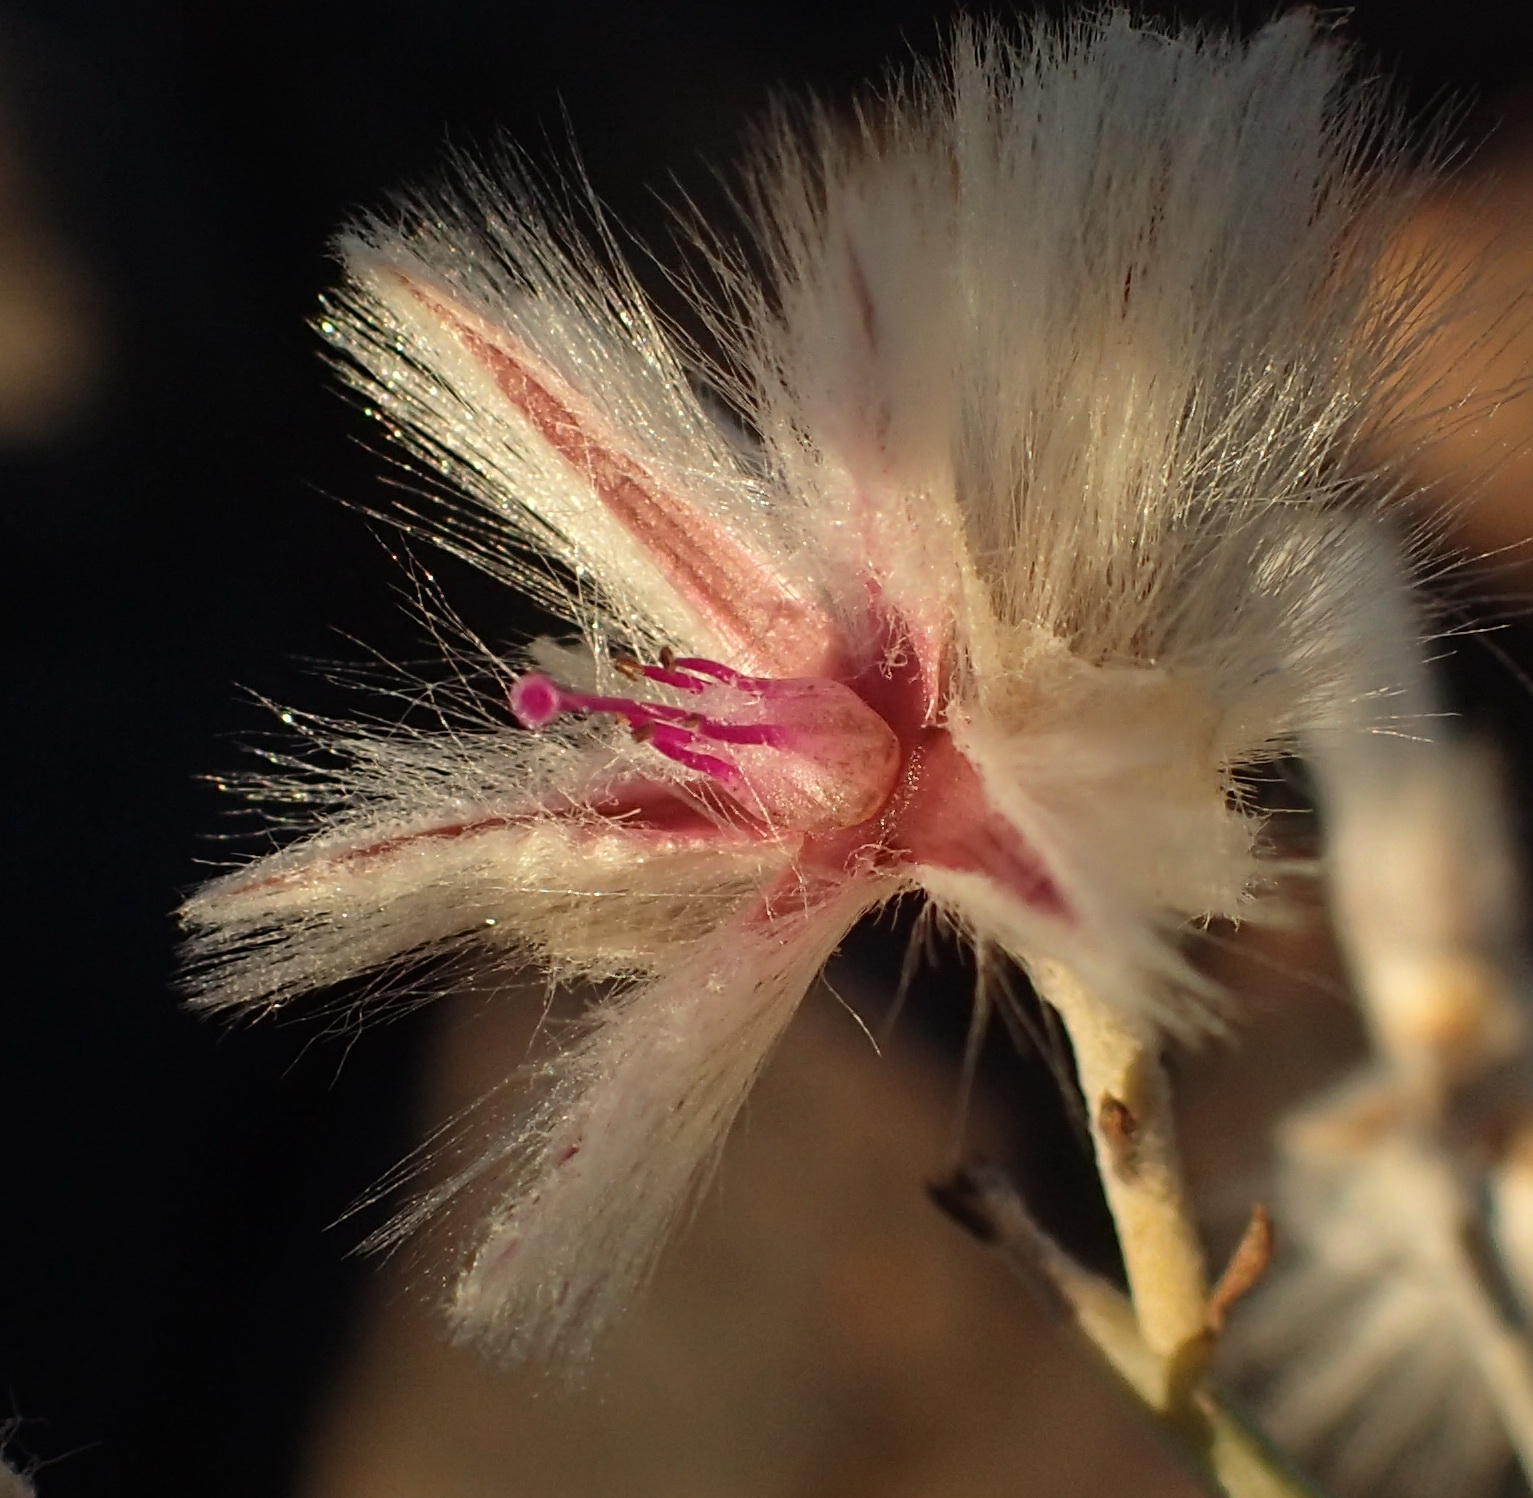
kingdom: Plantae
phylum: Tracheophyta
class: Magnoliopsida
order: Caryophyllales
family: Amaranthaceae
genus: Calicorema
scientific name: Calicorema capitata
